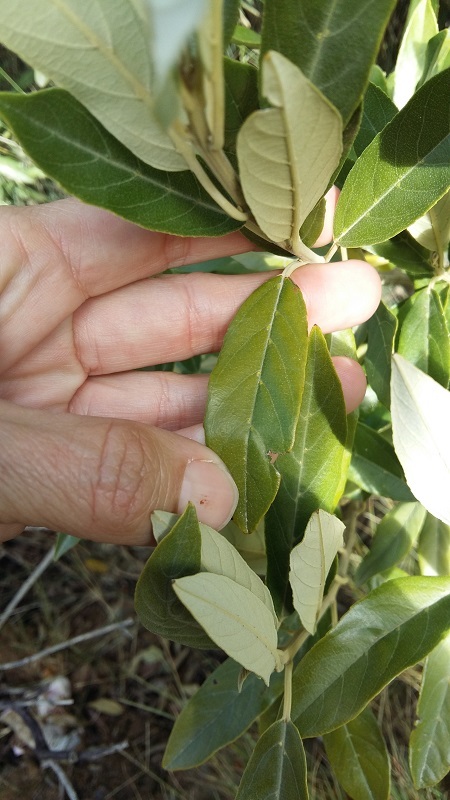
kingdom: Plantae
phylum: Tracheophyta
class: Magnoliopsida
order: Malpighiales
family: Achariaceae
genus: Kiggelaria
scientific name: Kiggelaria africana
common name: Wild peach
